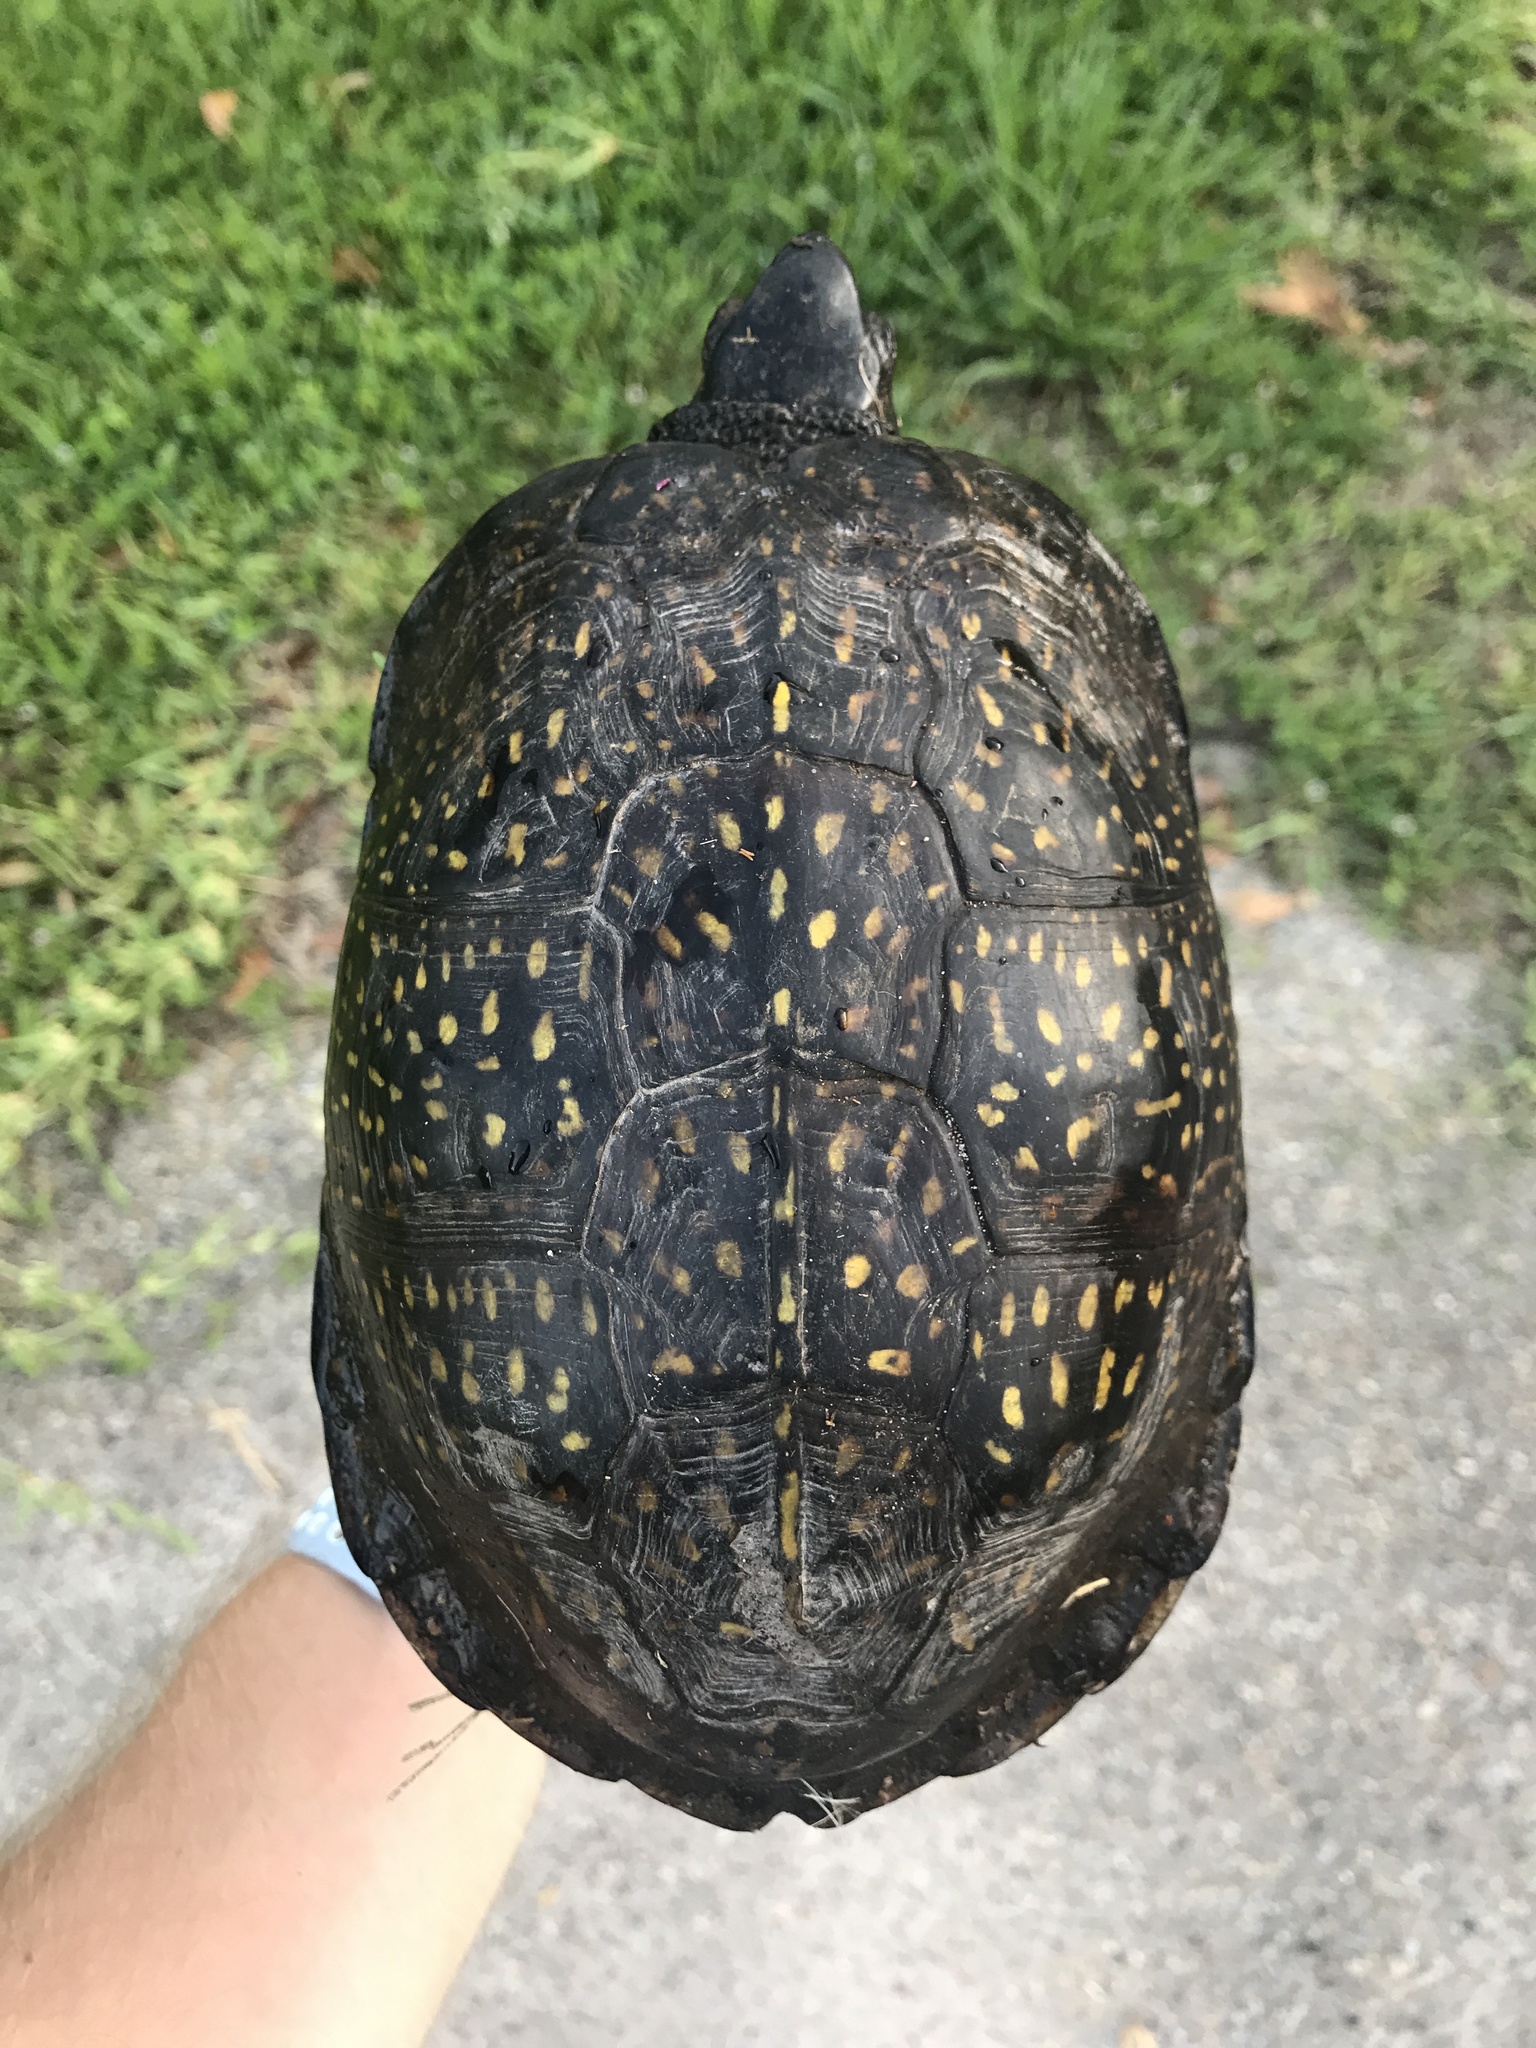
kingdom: Animalia
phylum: Chordata
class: Testudines
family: Emydidae
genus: Terrapene
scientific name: Terrapene carolina
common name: Common box turtle
